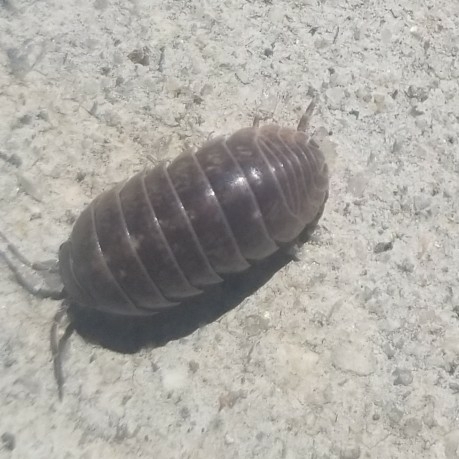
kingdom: Animalia
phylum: Arthropoda
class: Malacostraca
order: Isopoda
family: Armadillidiidae
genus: Armadillidium
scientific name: Armadillidium vulgare
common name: Common pill woodlouse
